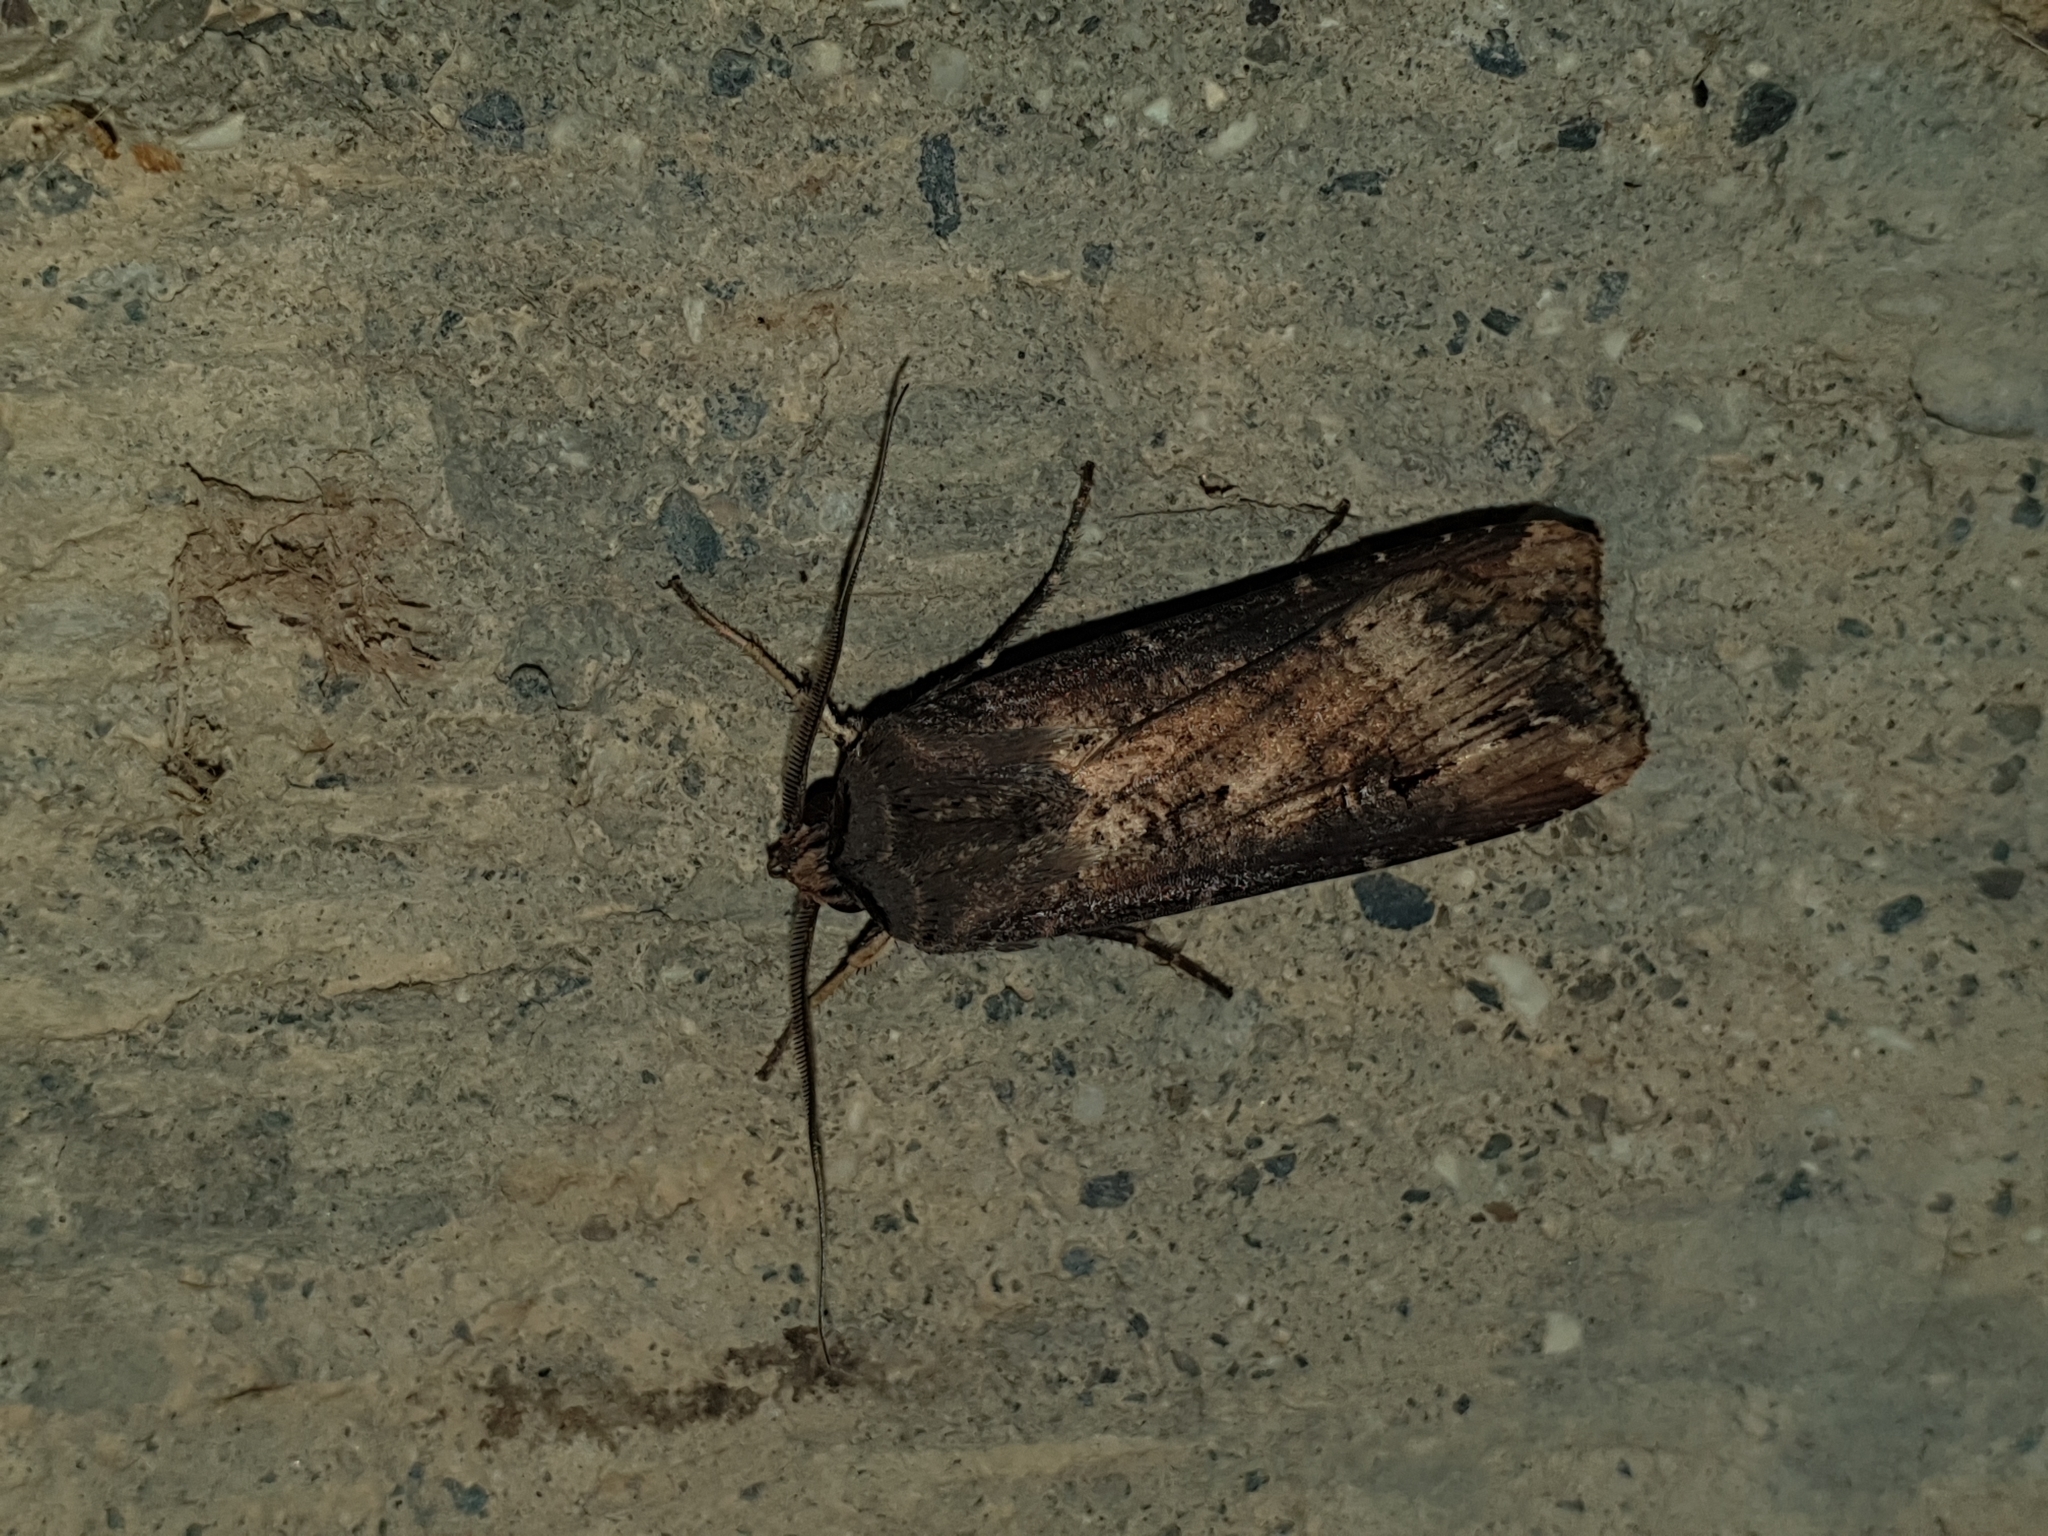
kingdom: Animalia
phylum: Arthropoda
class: Insecta
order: Lepidoptera
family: Noctuidae
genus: Agrotis
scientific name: Agrotis ipsilon
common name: Dark sword-grass
